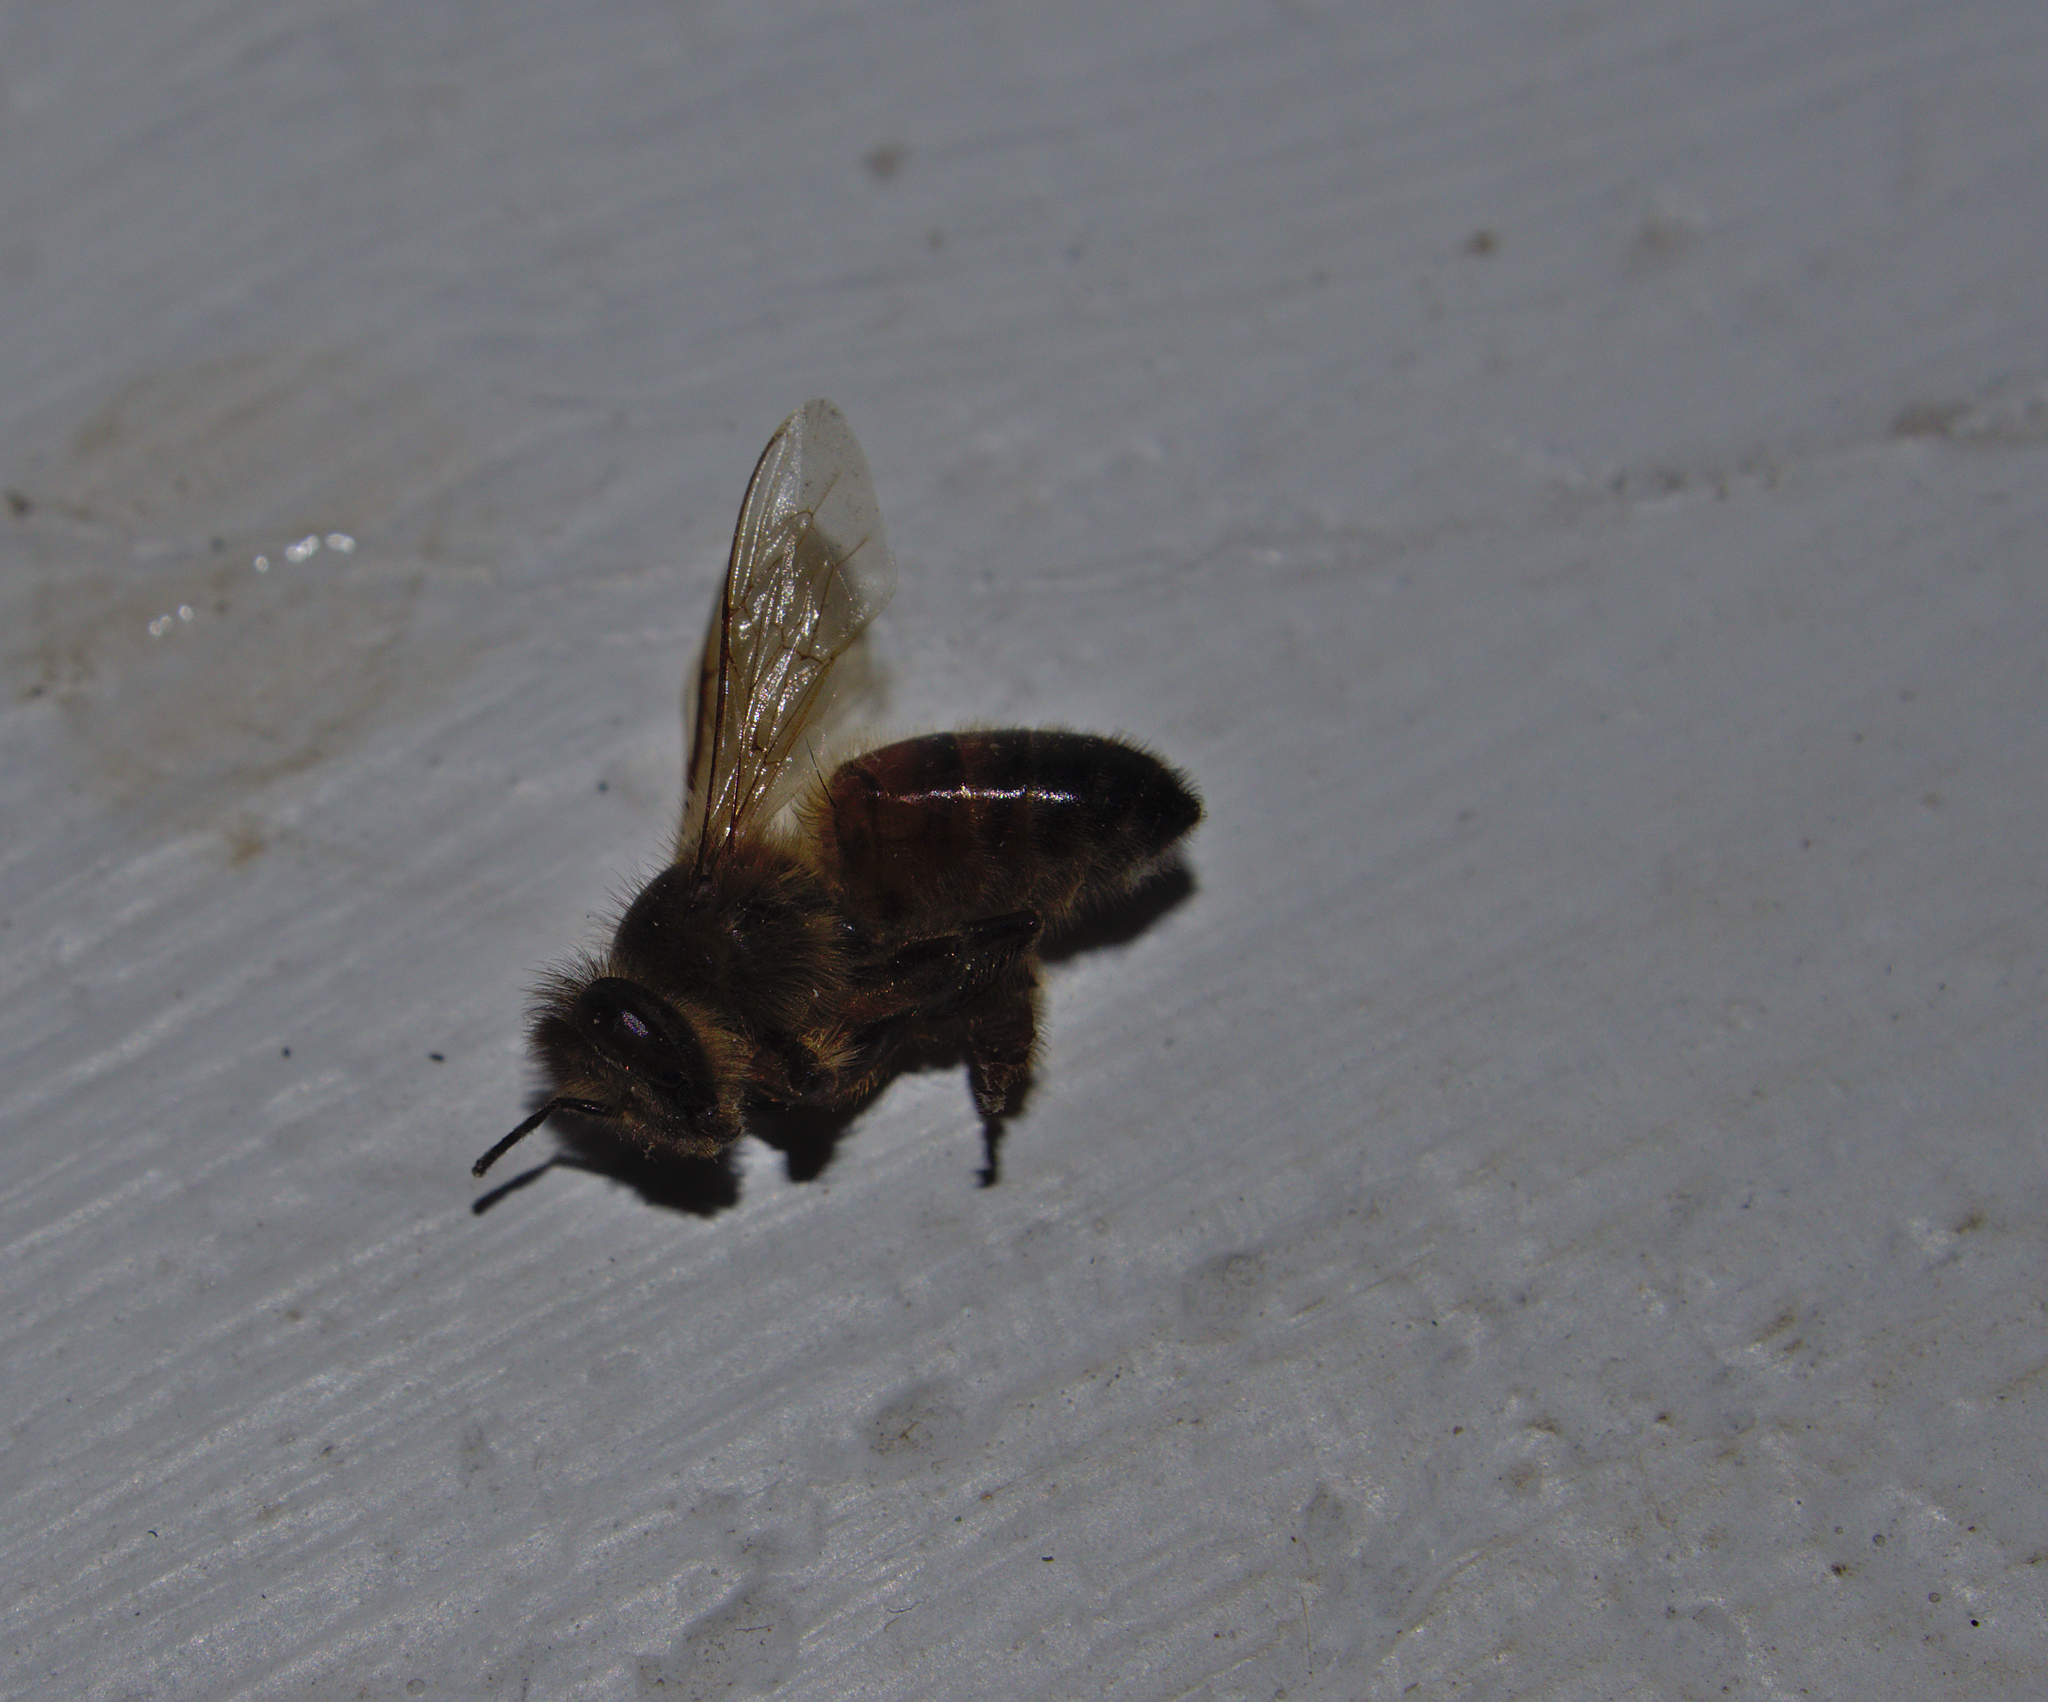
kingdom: Animalia
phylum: Arthropoda
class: Insecta
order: Hymenoptera
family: Apidae
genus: Apis
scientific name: Apis mellifera
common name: Honey bee
